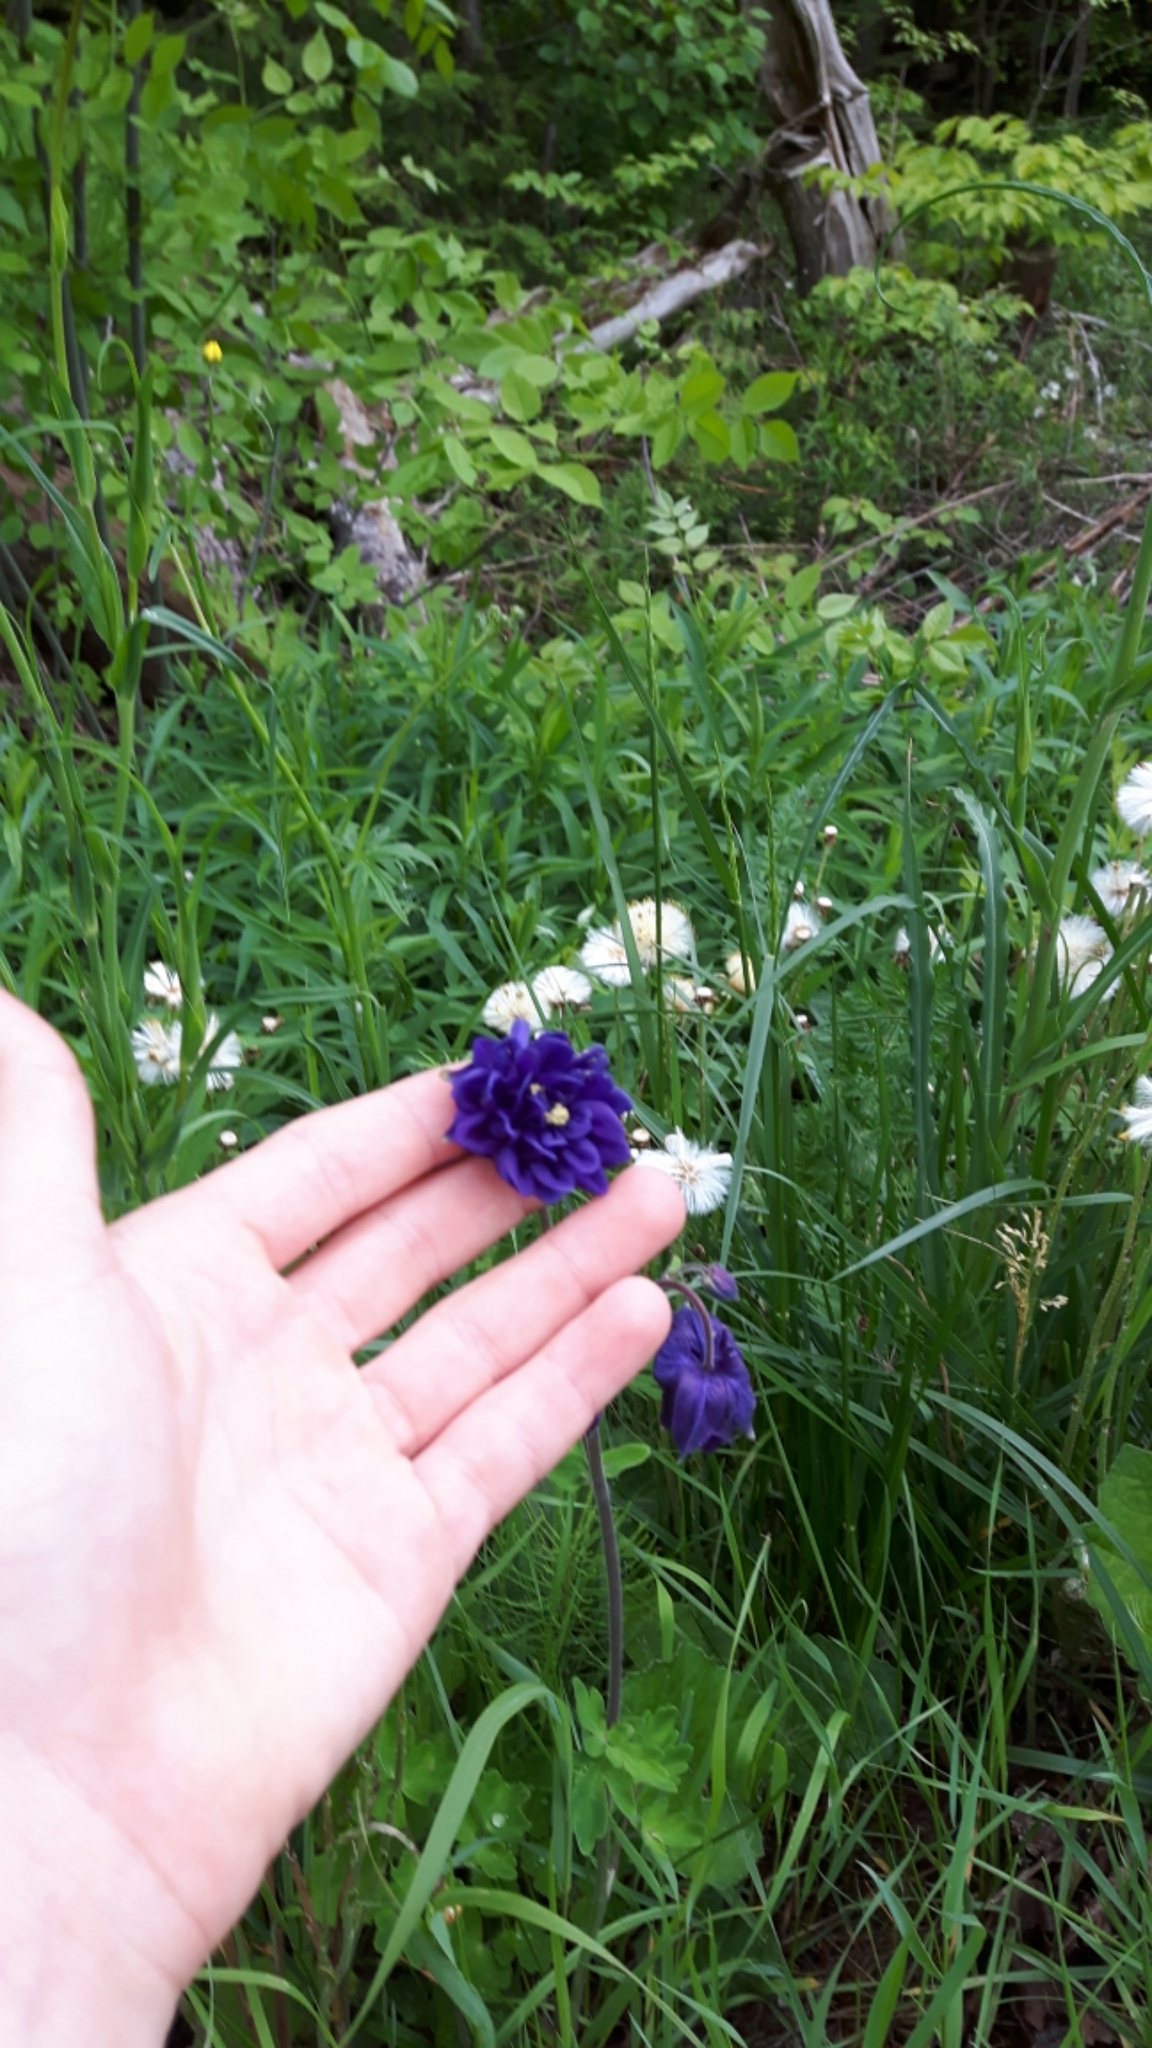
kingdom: Plantae
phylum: Tracheophyta
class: Magnoliopsida
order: Ranunculales
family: Ranunculaceae
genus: Aquilegia
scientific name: Aquilegia vulgaris
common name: Columbine
